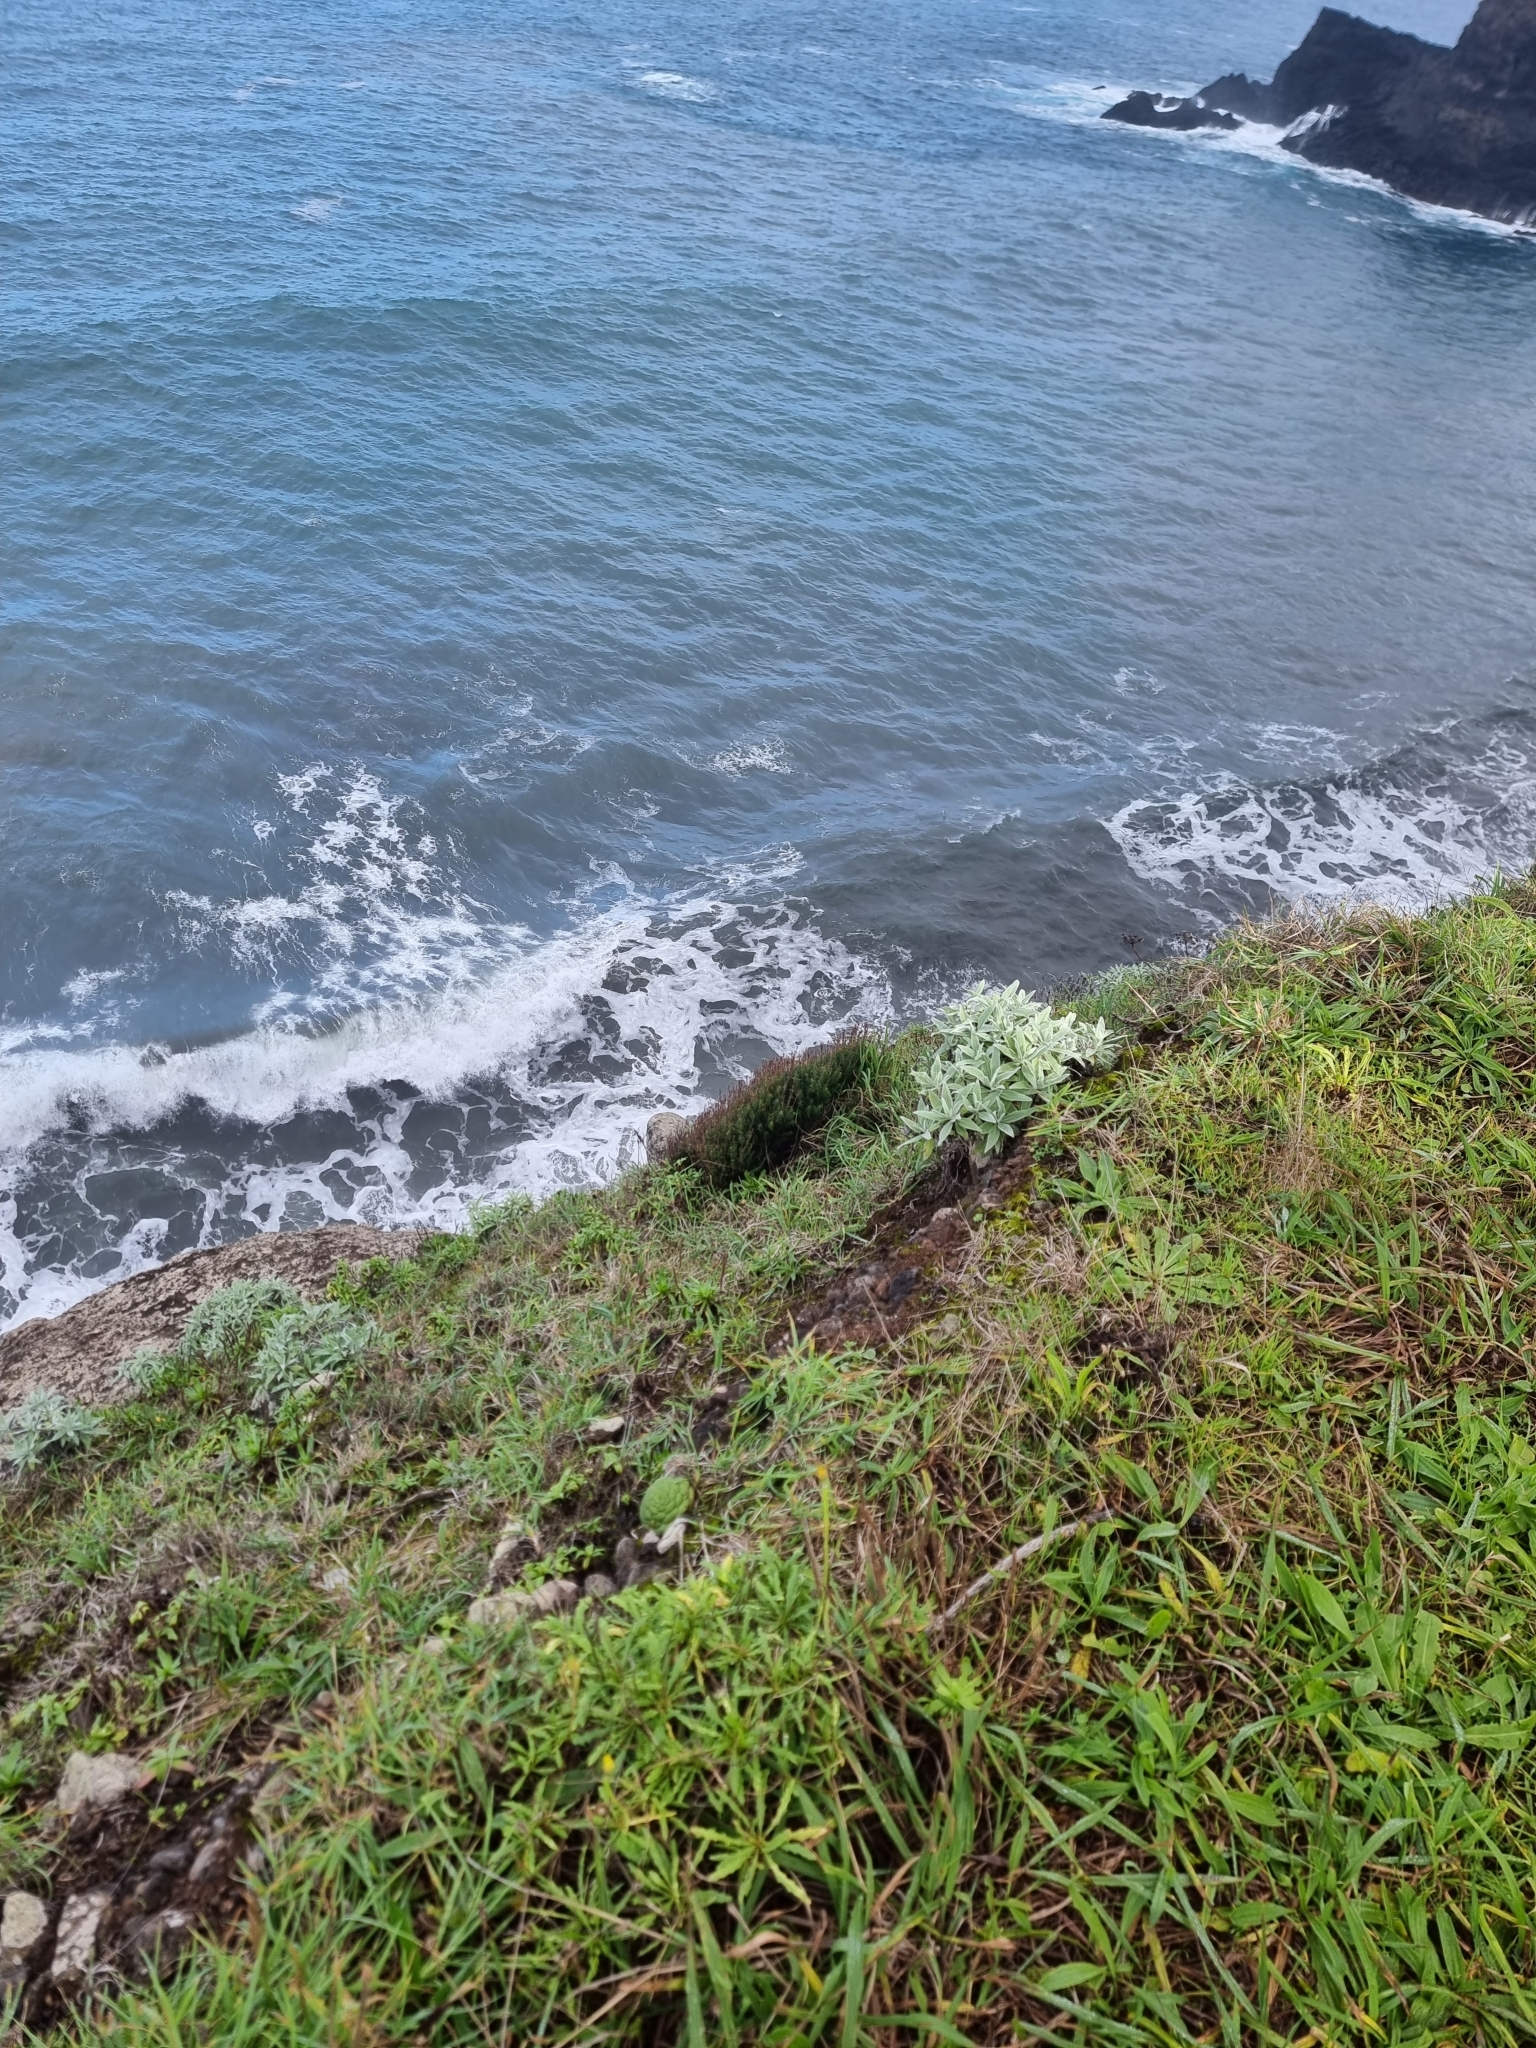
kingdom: Plantae
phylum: Tracheophyta
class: Magnoliopsida
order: Ericales
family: Ericaceae
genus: Erica
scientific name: Erica platycodon
